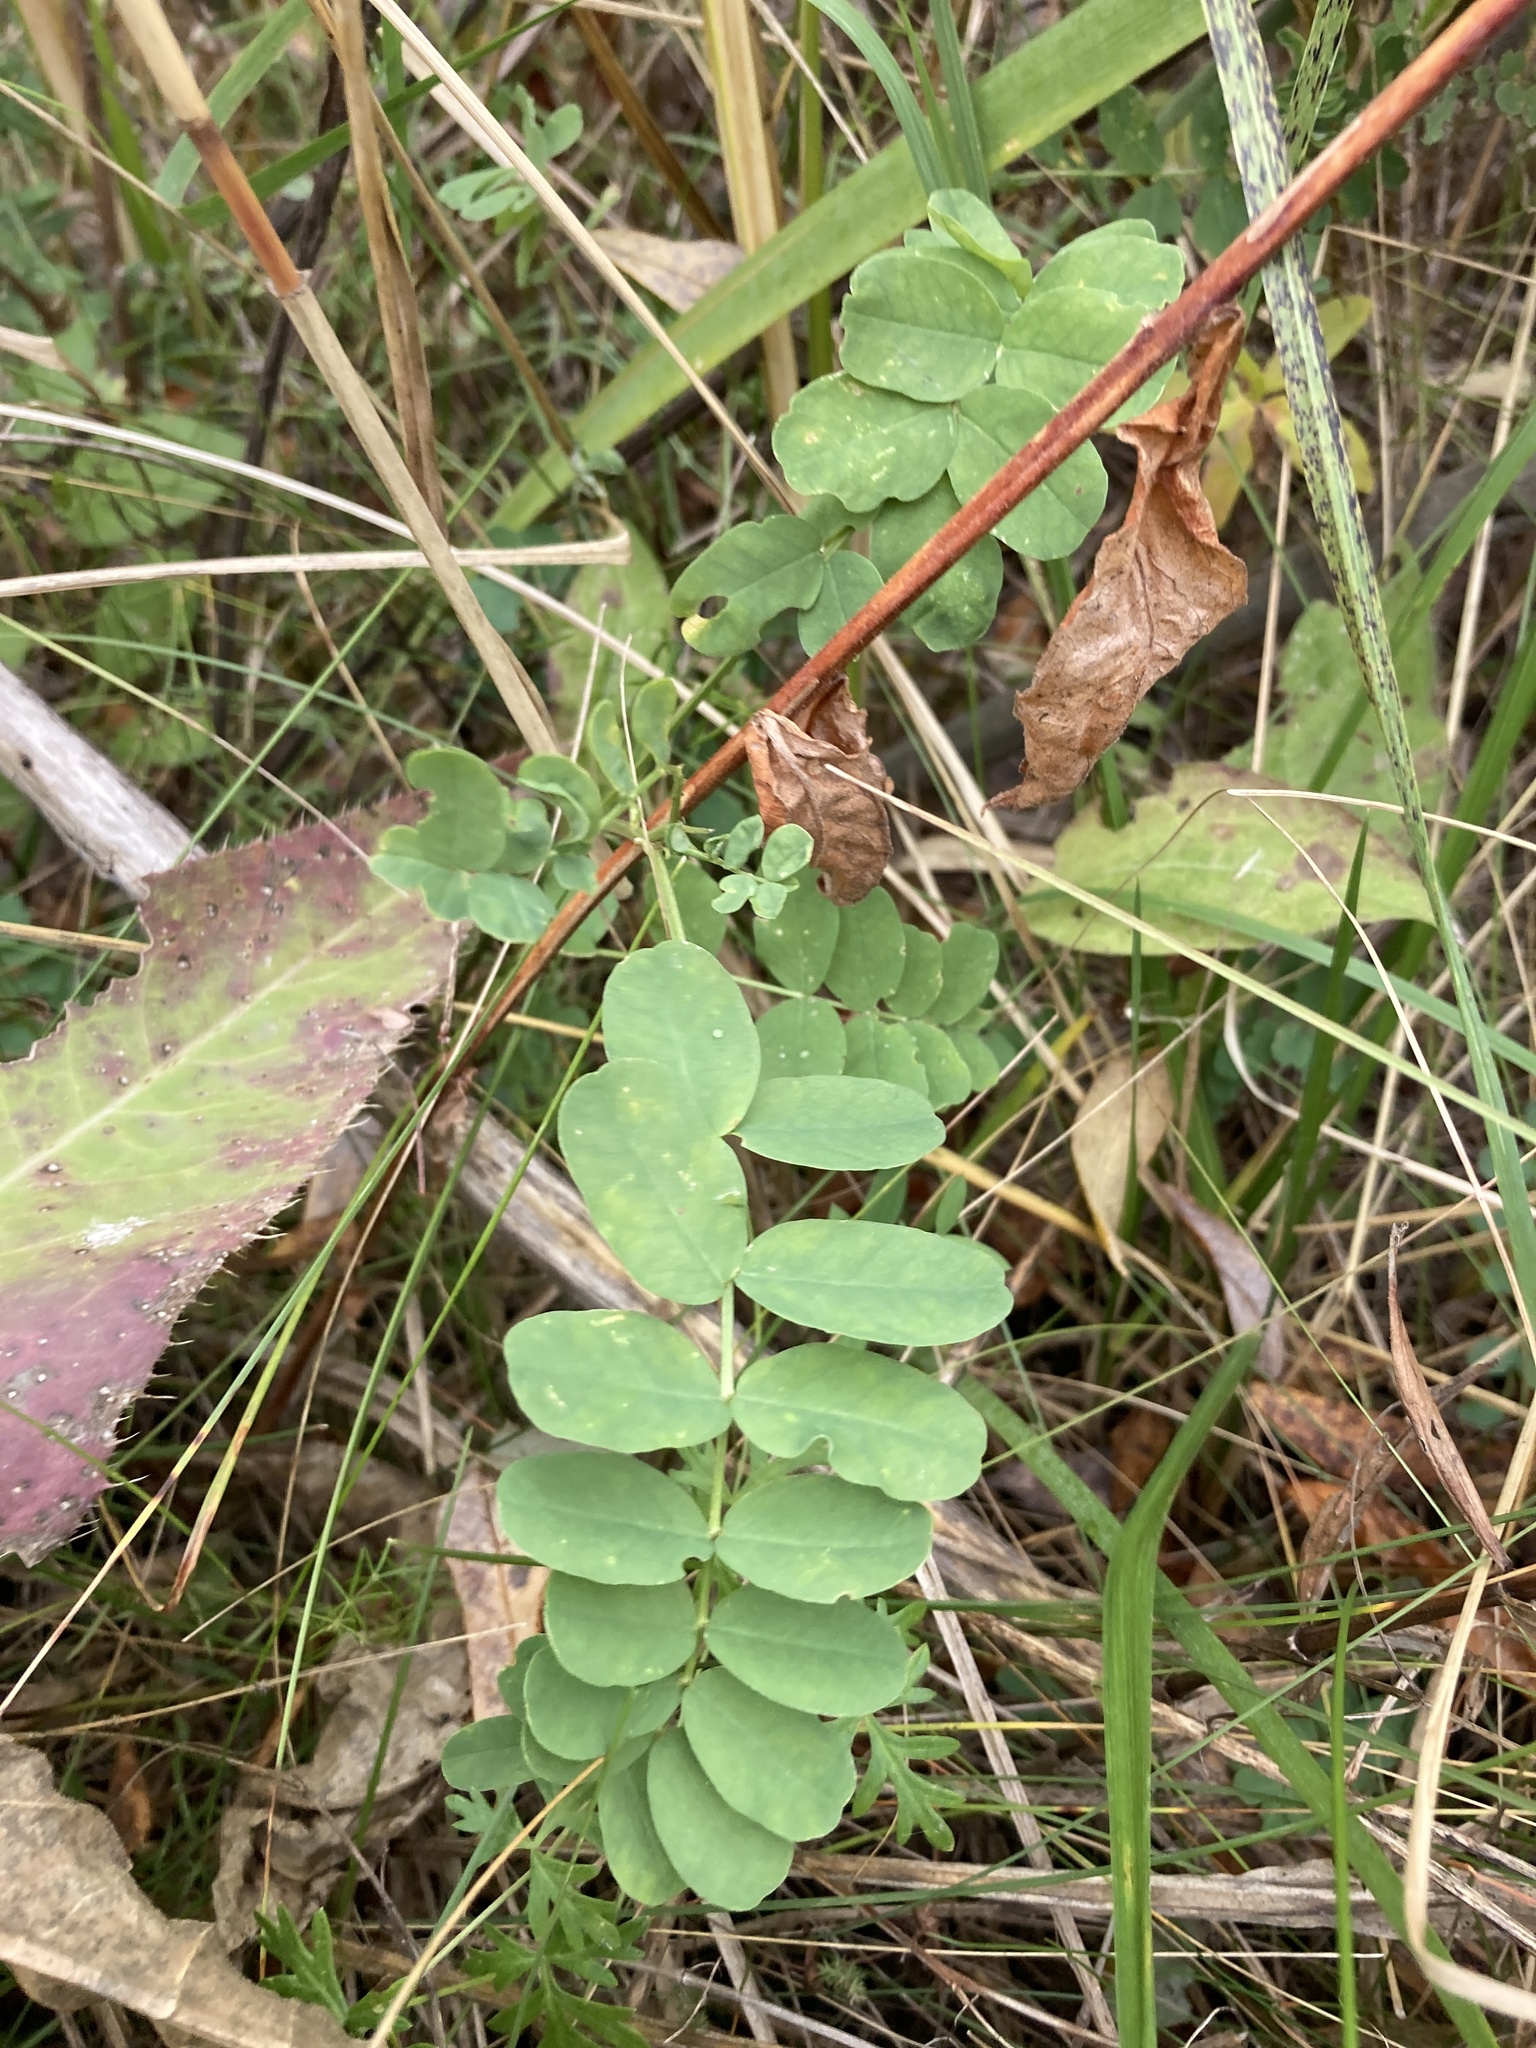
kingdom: Plantae
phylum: Tracheophyta
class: Magnoliopsida
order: Fabales
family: Fabaceae
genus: Coronilla
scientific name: Coronilla varia
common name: Crownvetch
